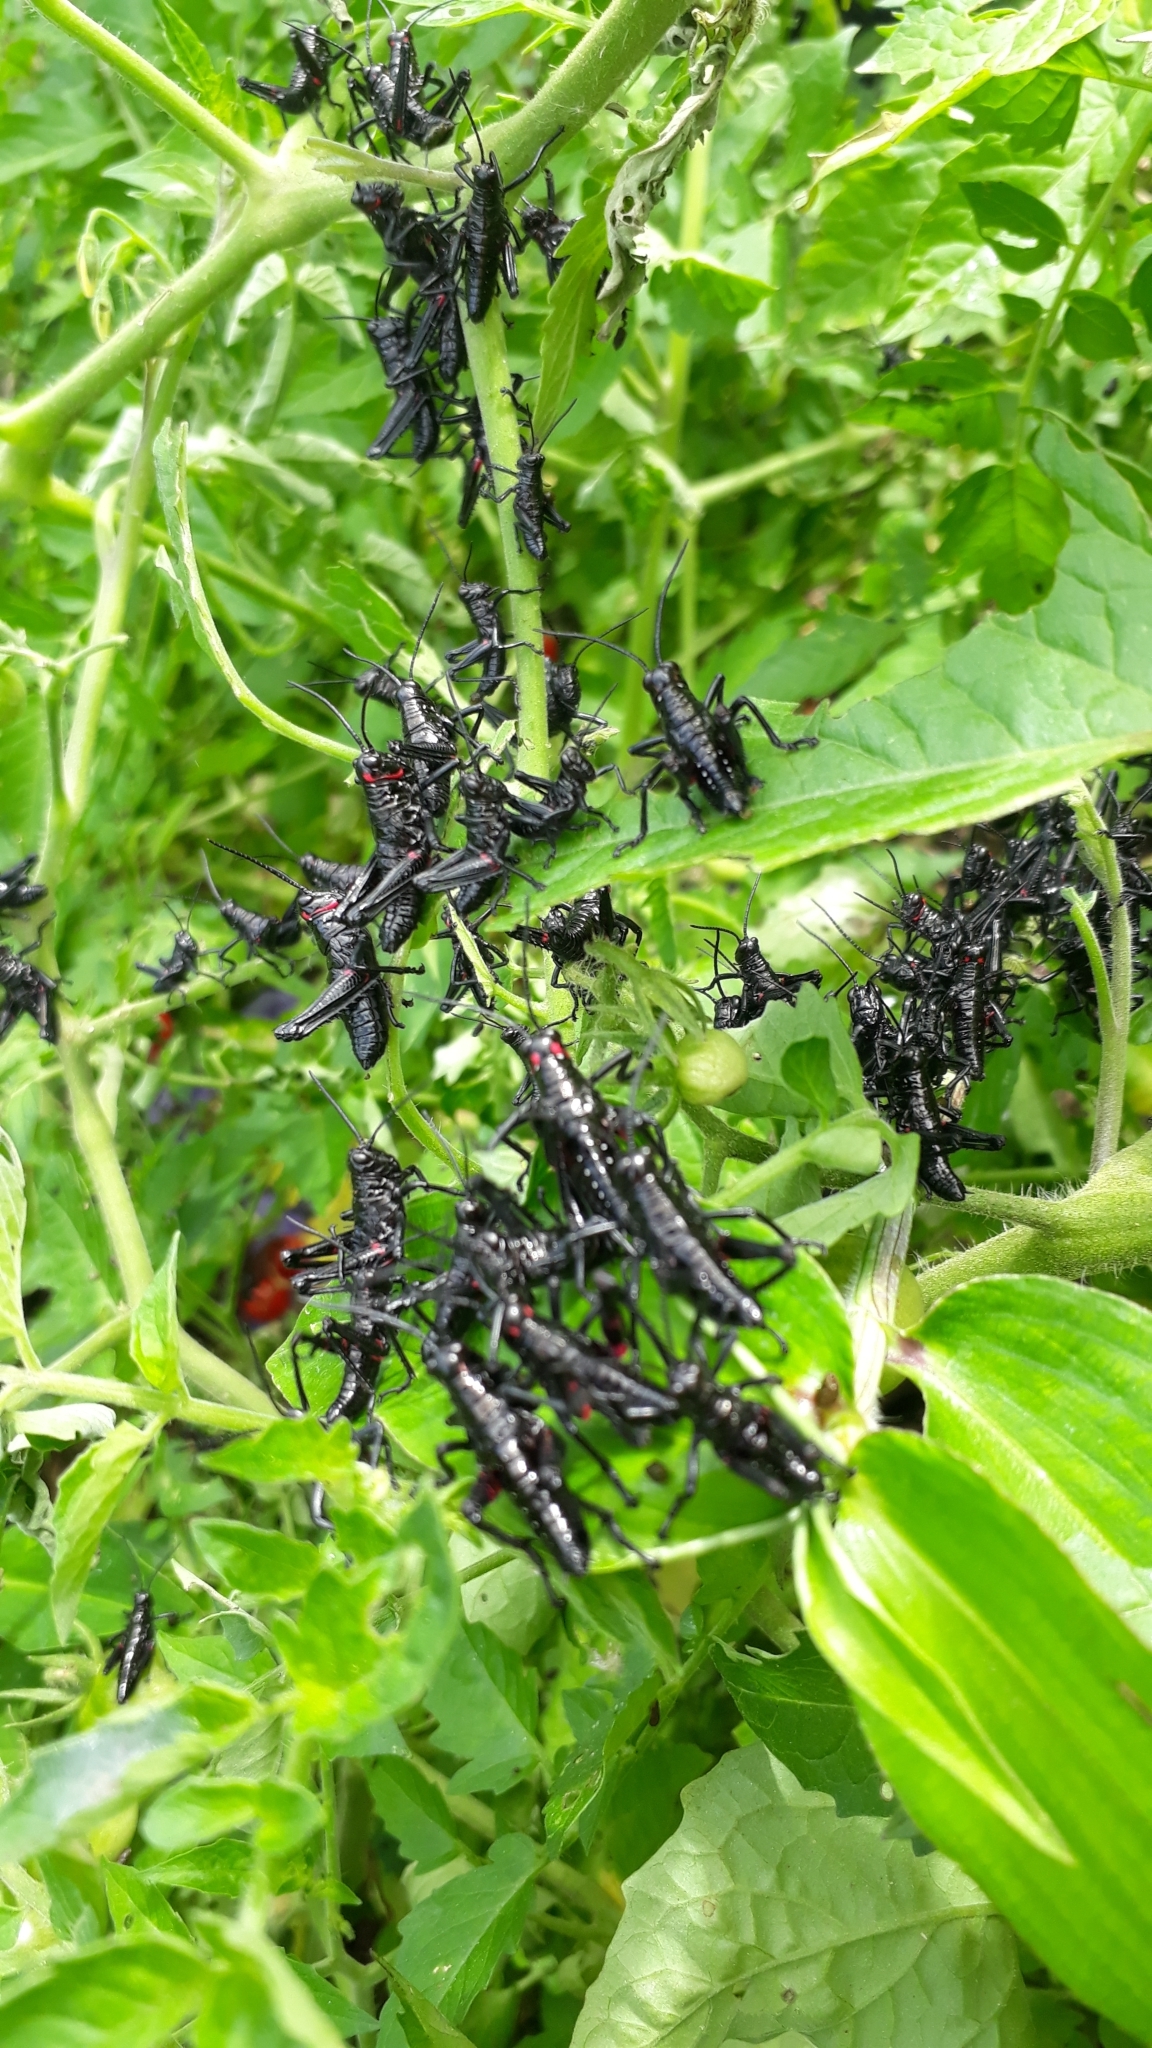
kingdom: Animalia
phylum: Arthropoda
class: Insecta
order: Orthoptera
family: Romaleidae
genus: Chromacris
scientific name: Chromacris speciosa
